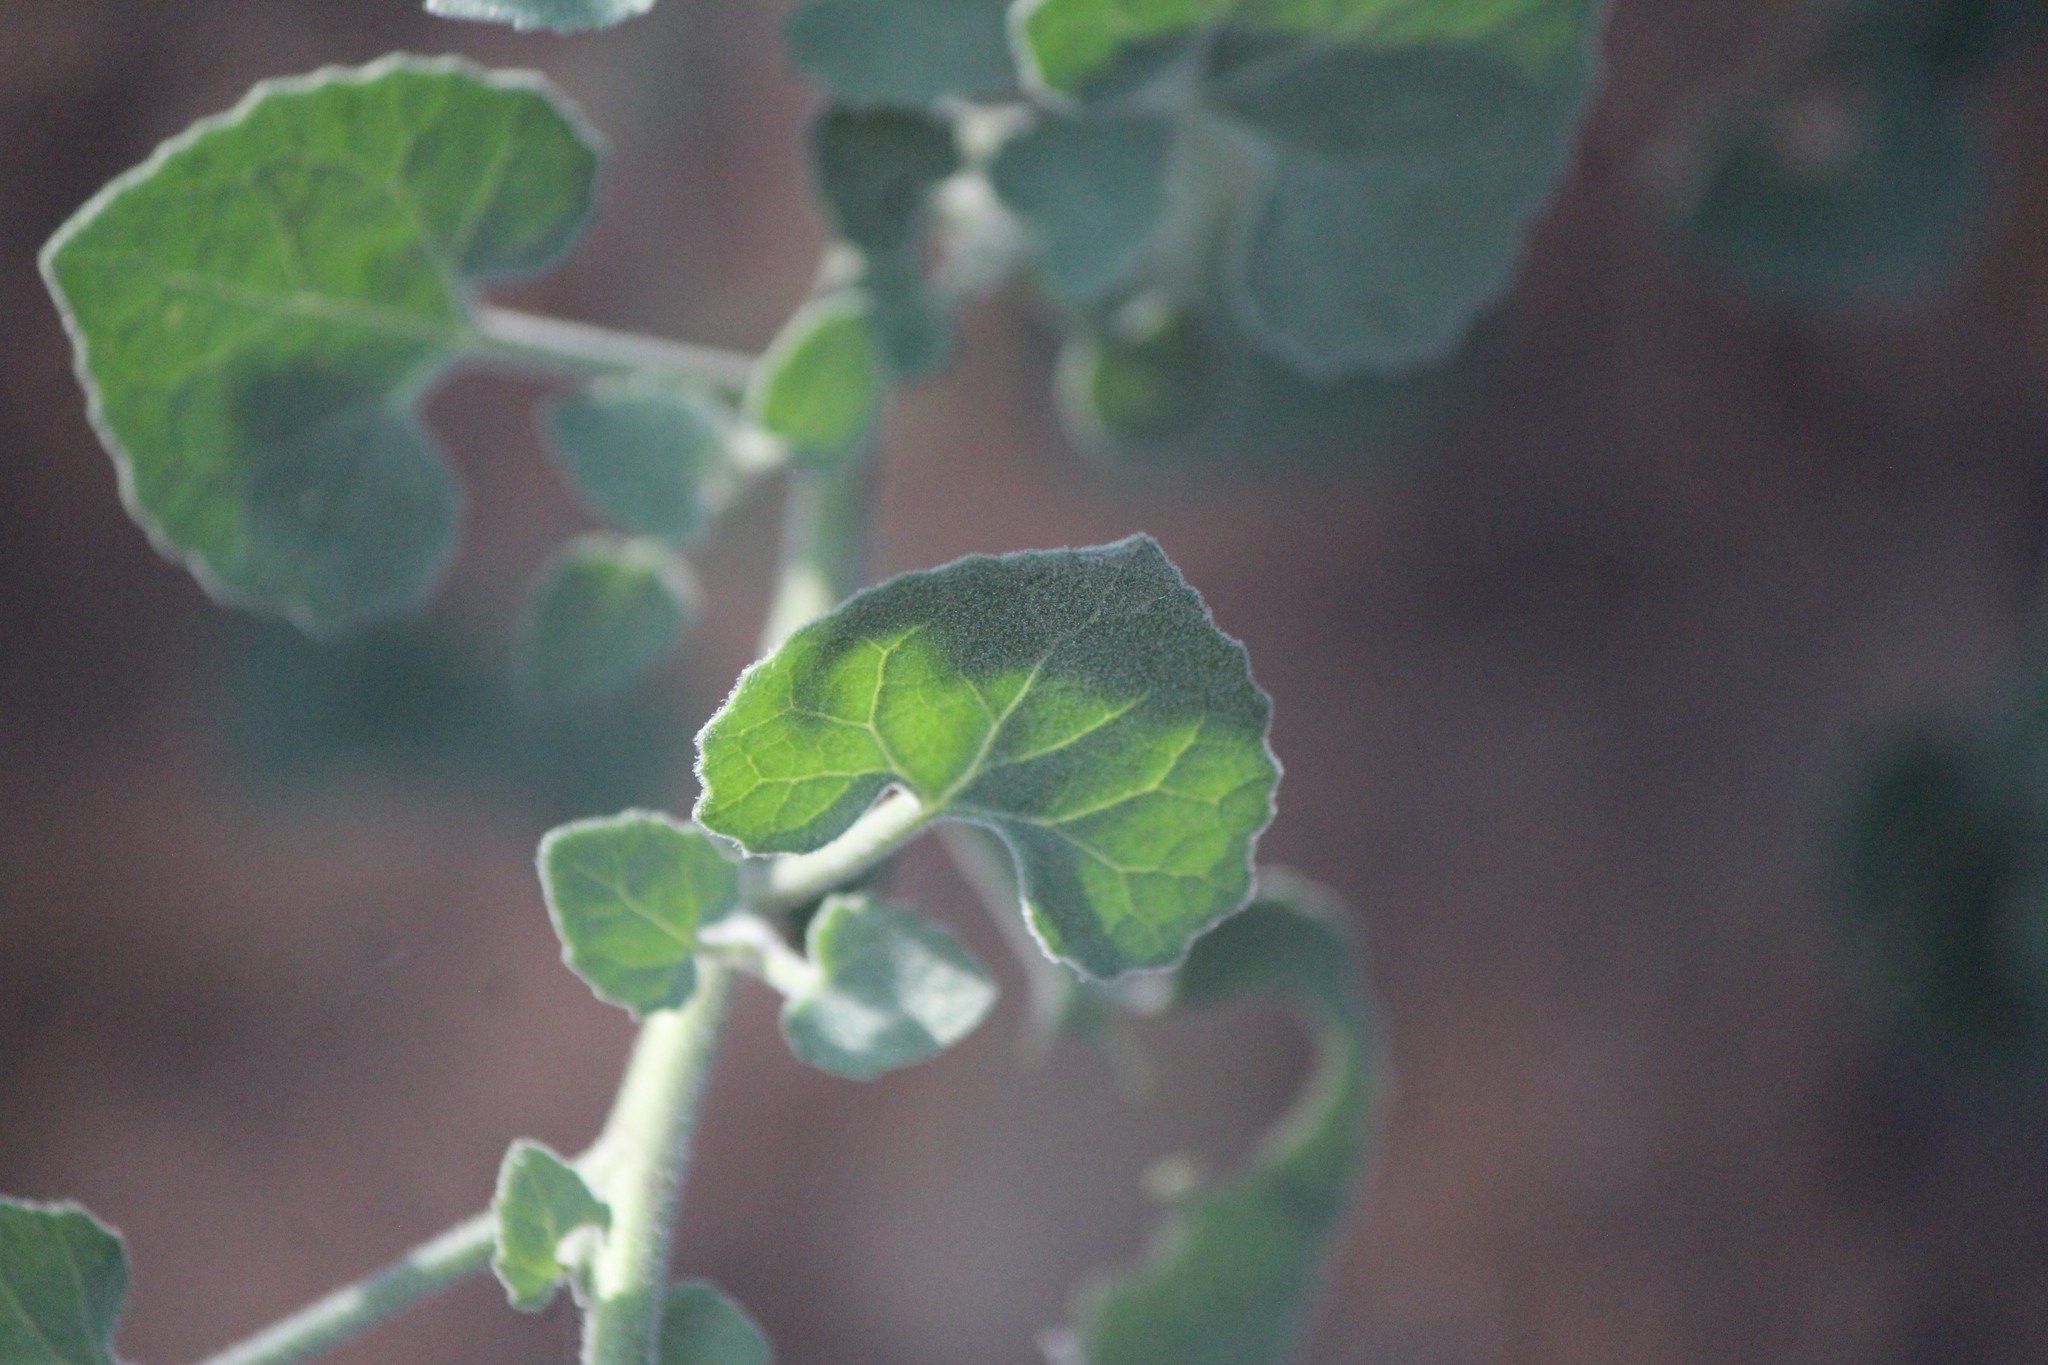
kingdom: Plantae
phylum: Tracheophyta
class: Magnoliopsida
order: Asterales
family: Asteraceae
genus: Eutetras
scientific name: Eutetras pringlei
